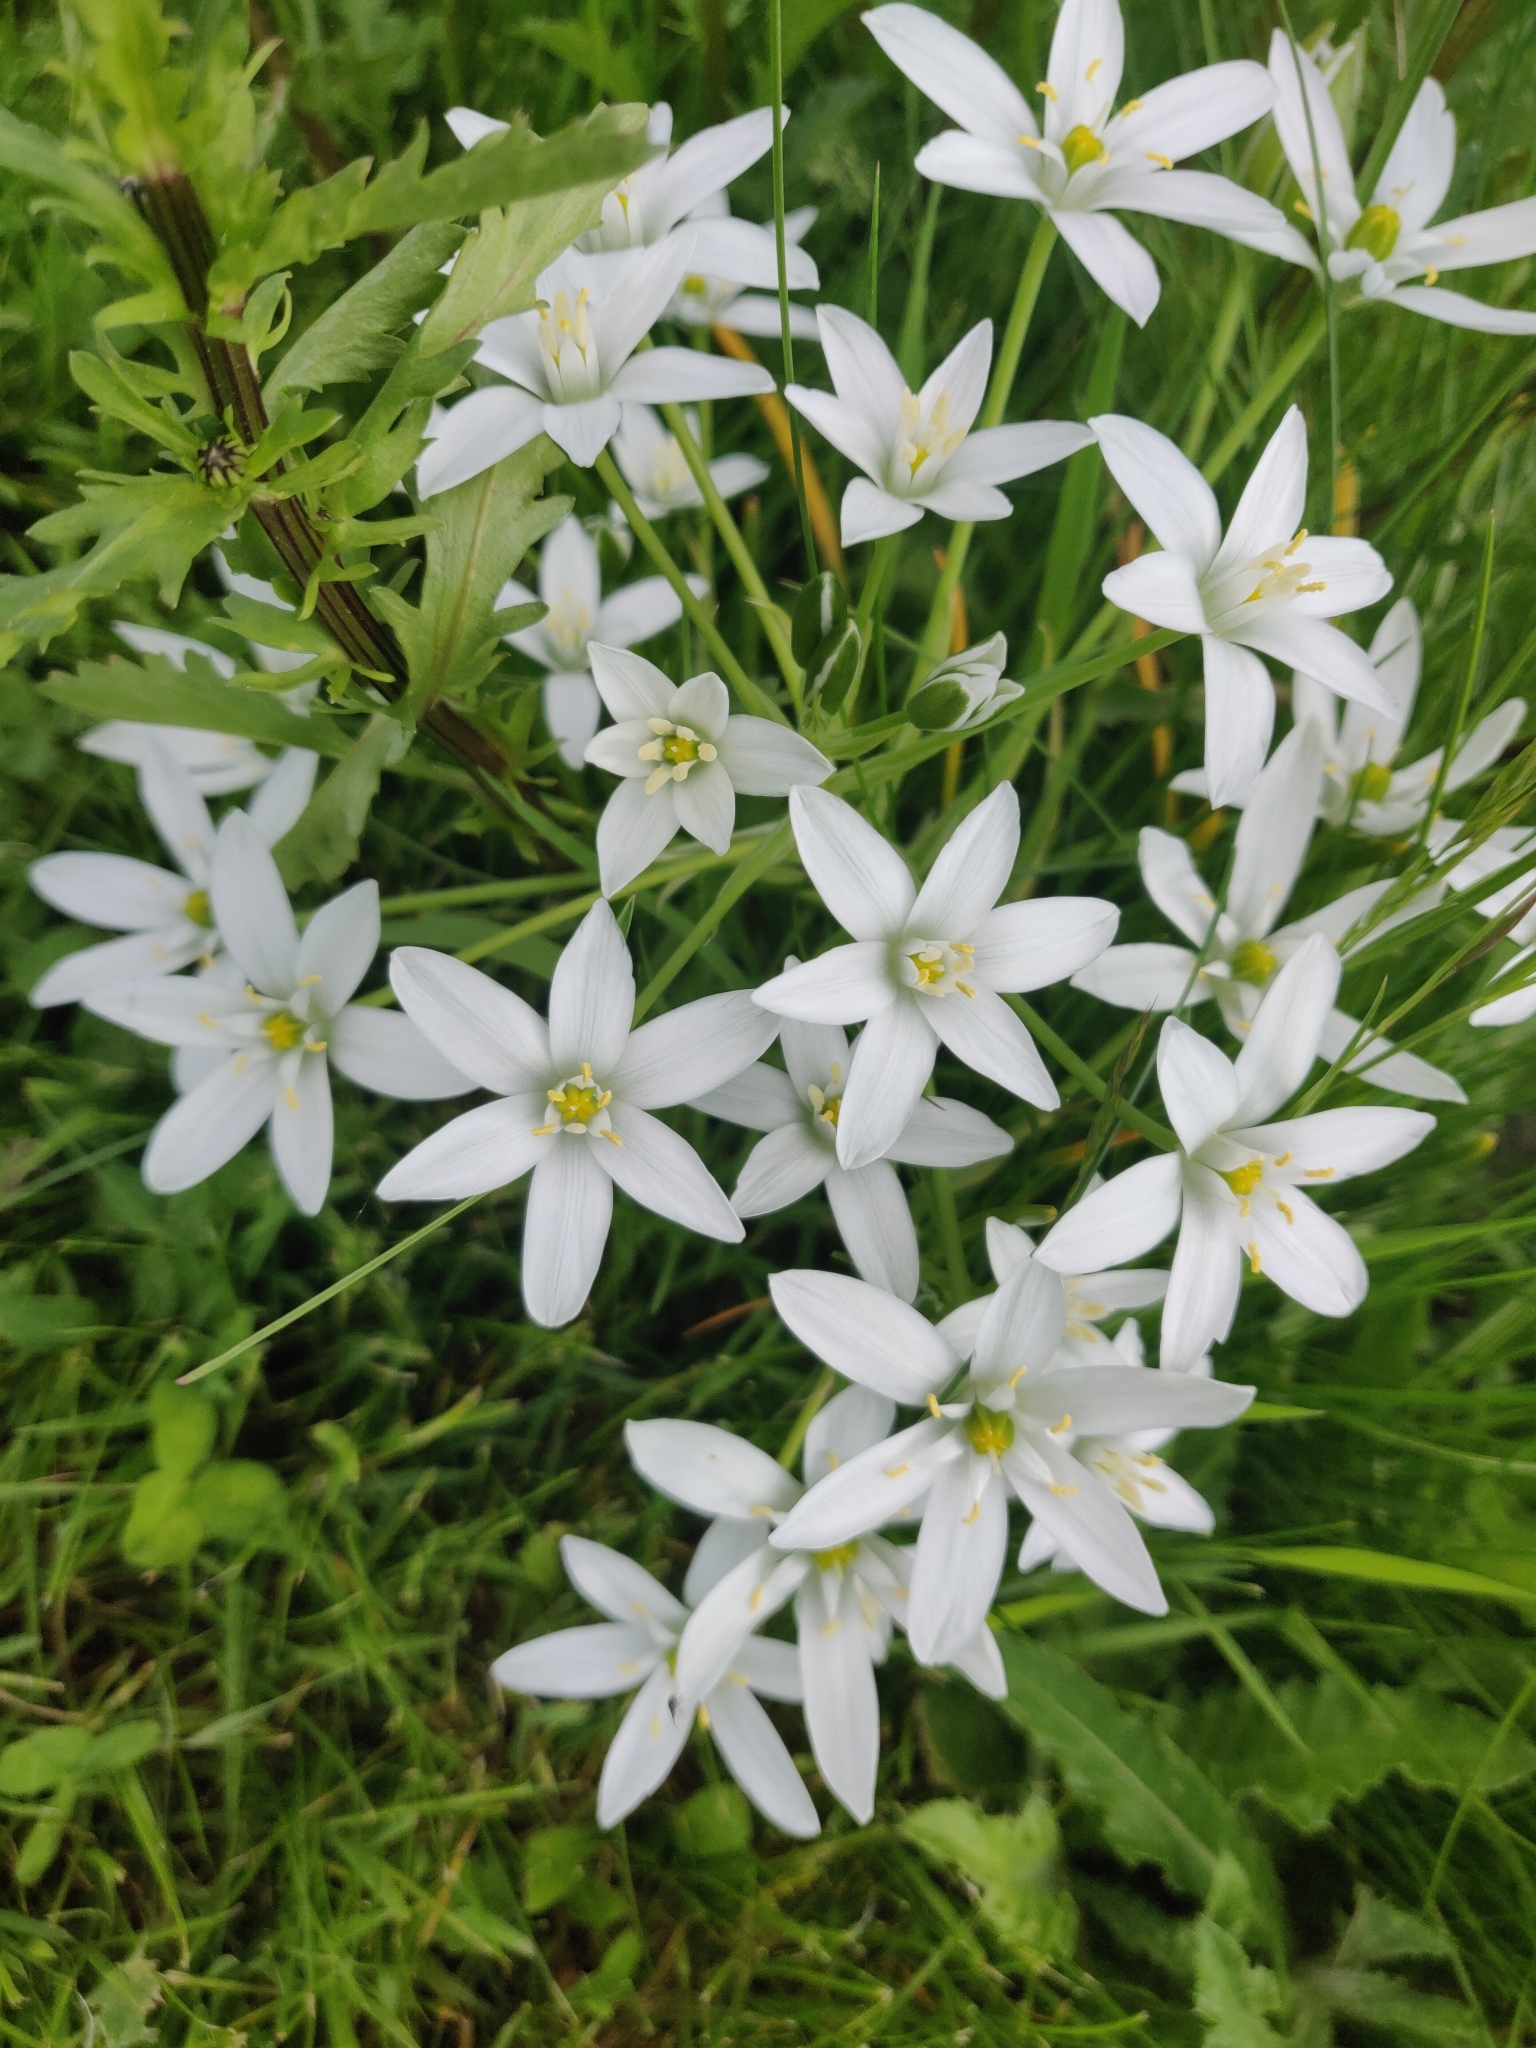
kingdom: Plantae
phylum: Tracheophyta
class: Liliopsida
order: Asparagales
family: Asparagaceae
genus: Ornithogalum
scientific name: Ornithogalum umbellatum
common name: Garden star-of-bethlehem
